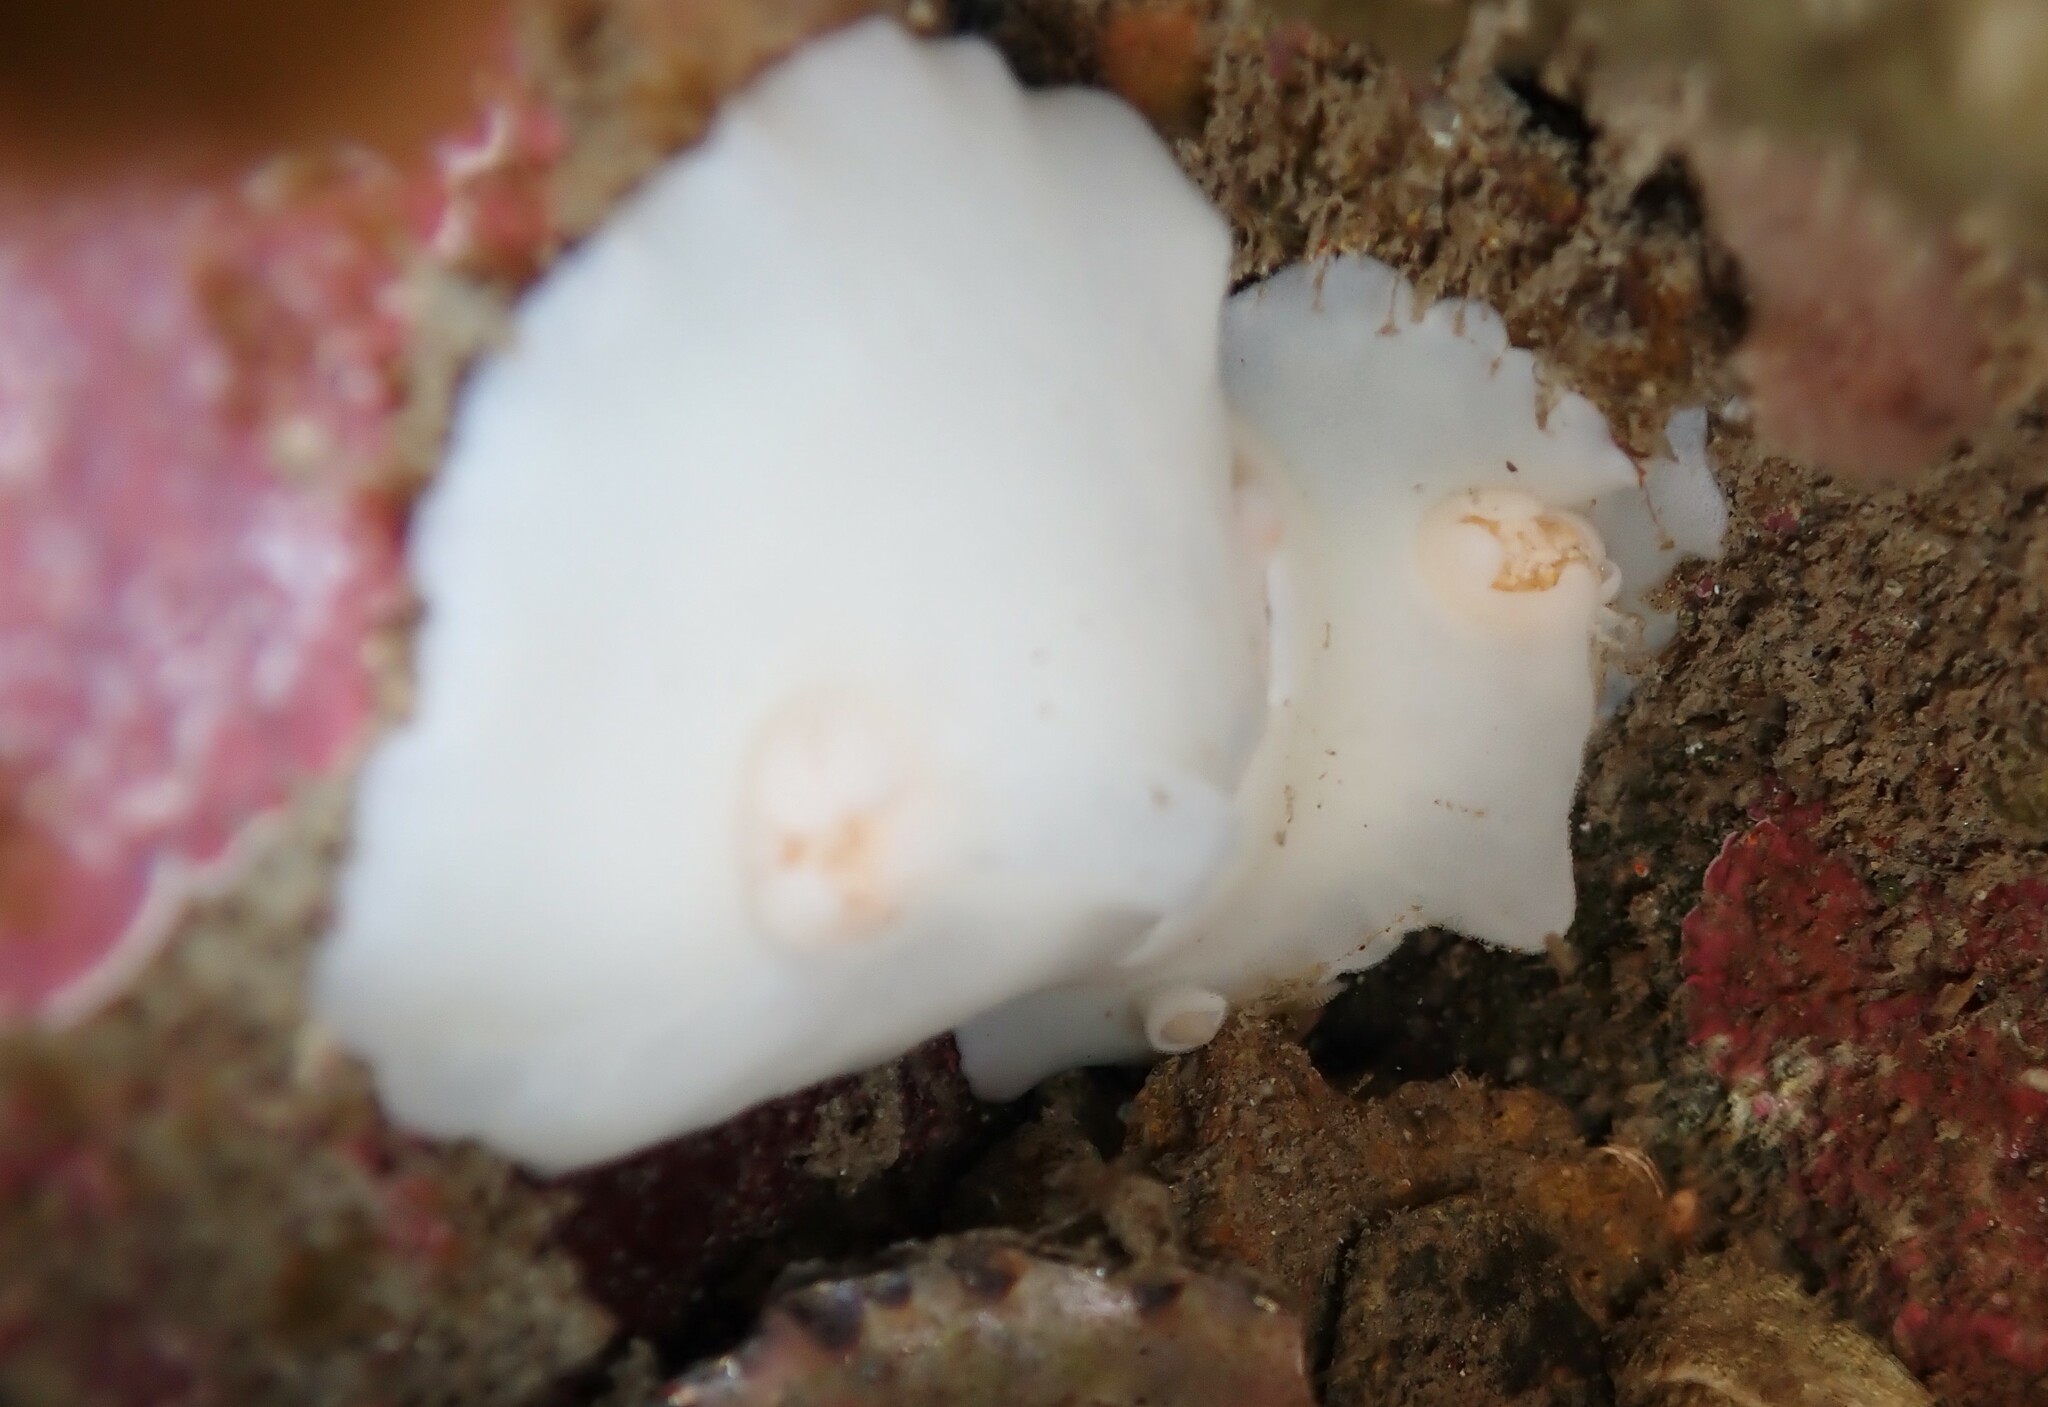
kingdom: Animalia
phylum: Mollusca
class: Gastropoda
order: Nudibranchia
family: Discodorididae
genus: Atagema
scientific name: Atagema carinata
